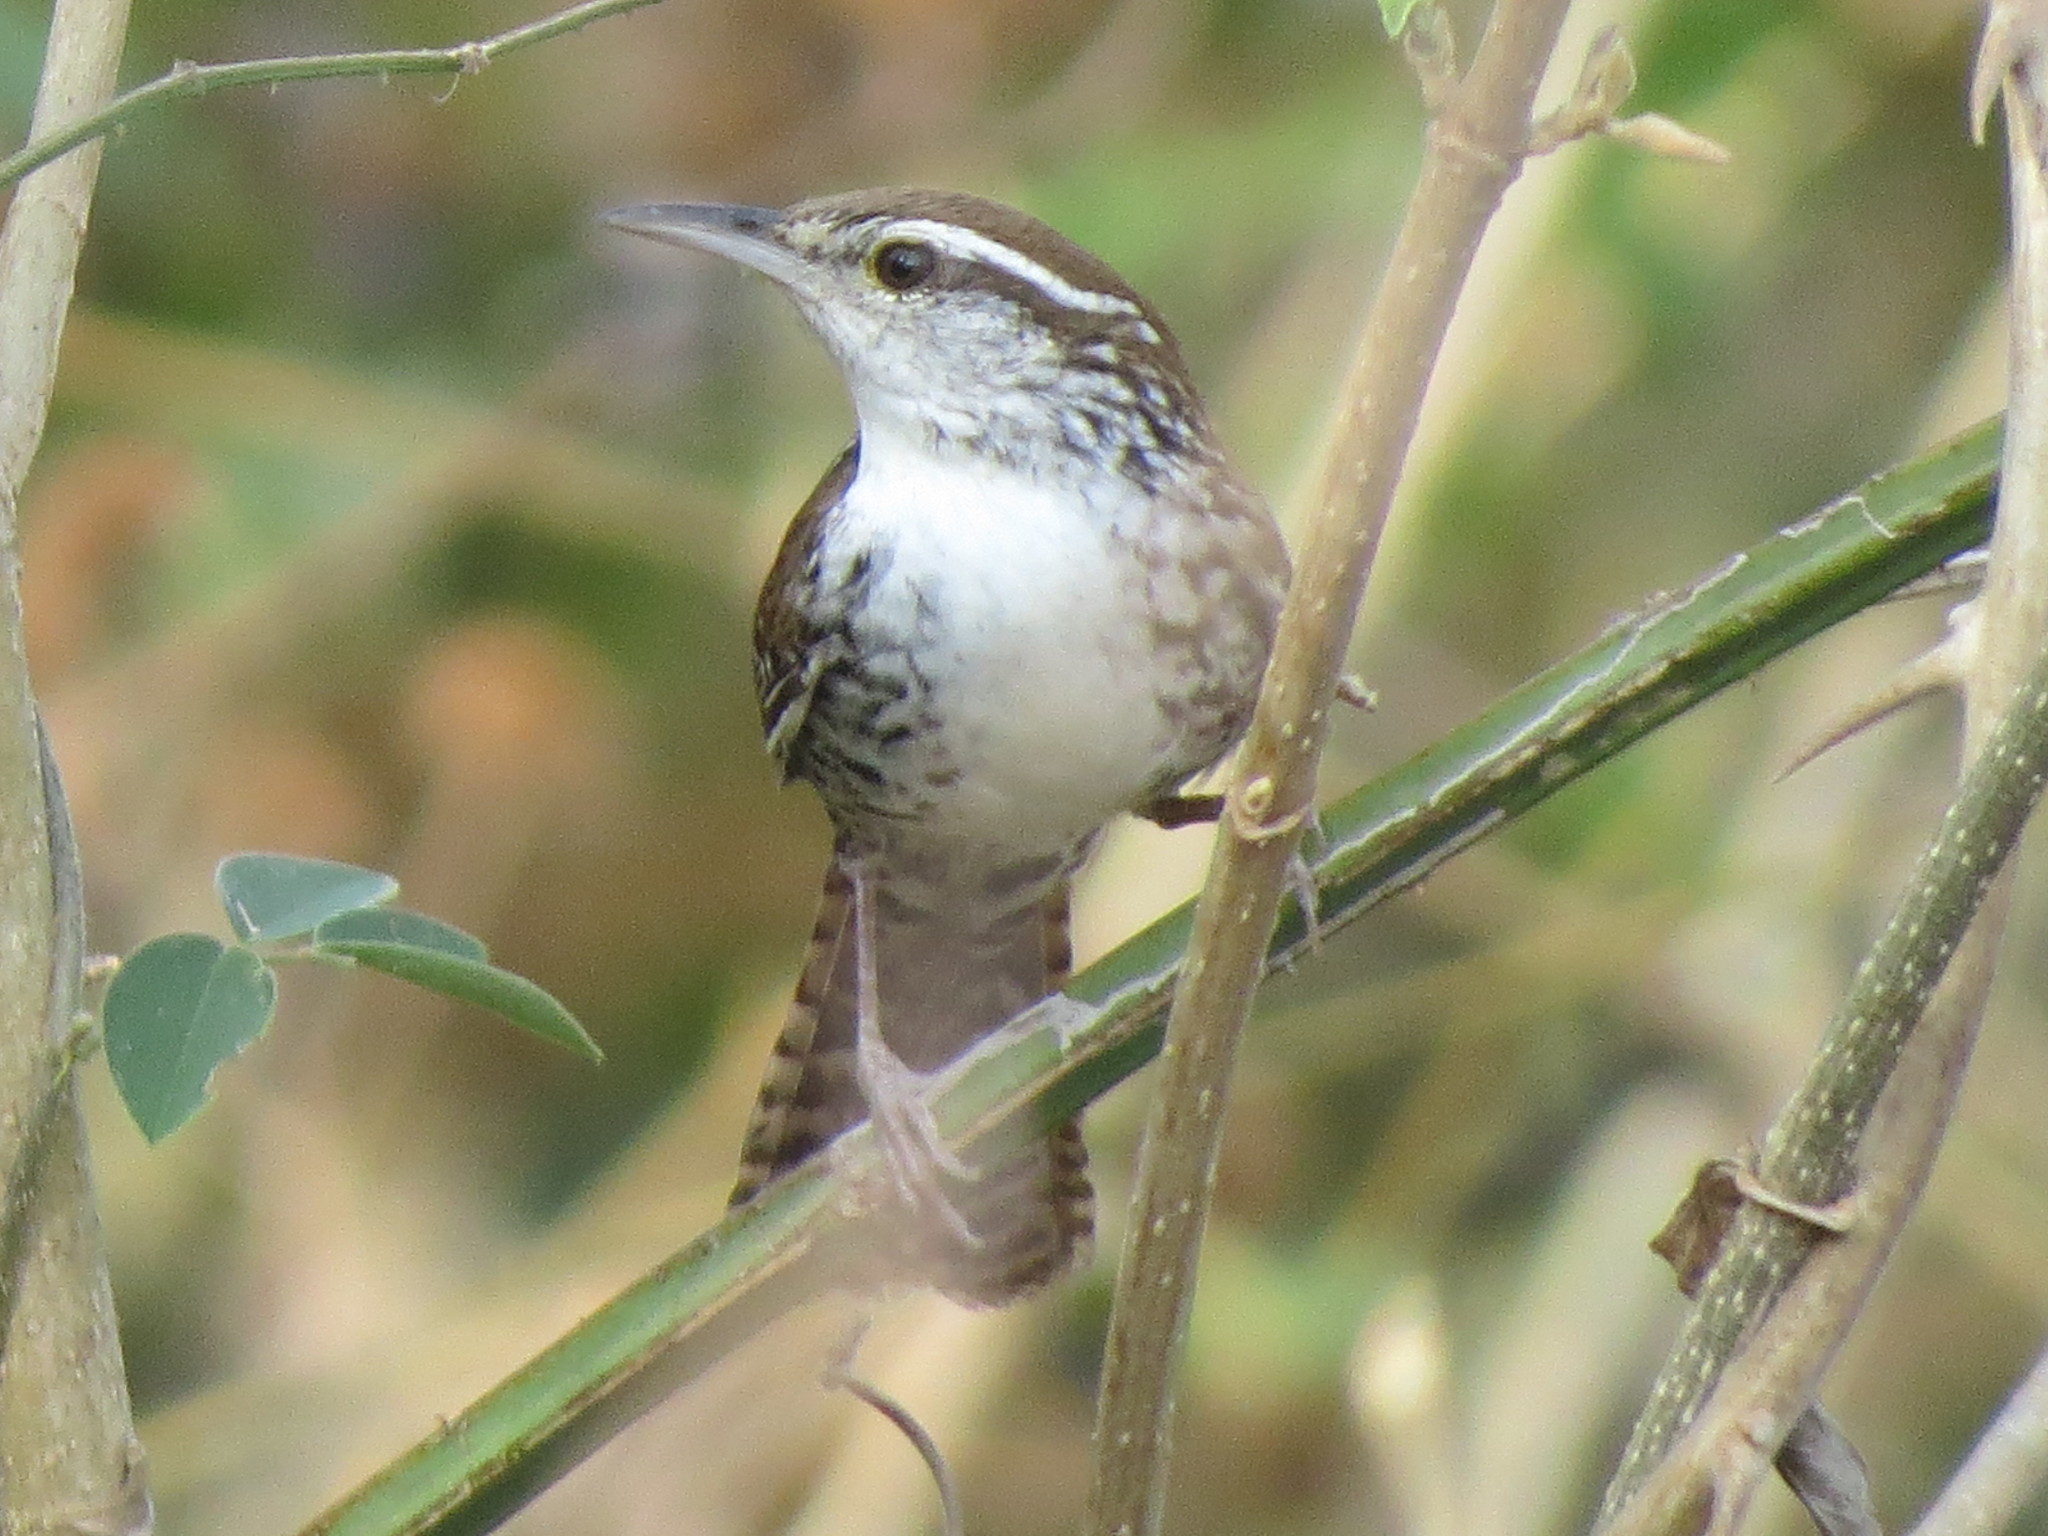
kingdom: Animalia
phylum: Chordata
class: Aves
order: Passeriformes
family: Troglodytidae
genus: Thryophilus
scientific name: Thryophilus pleurostictus
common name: Banded wren
